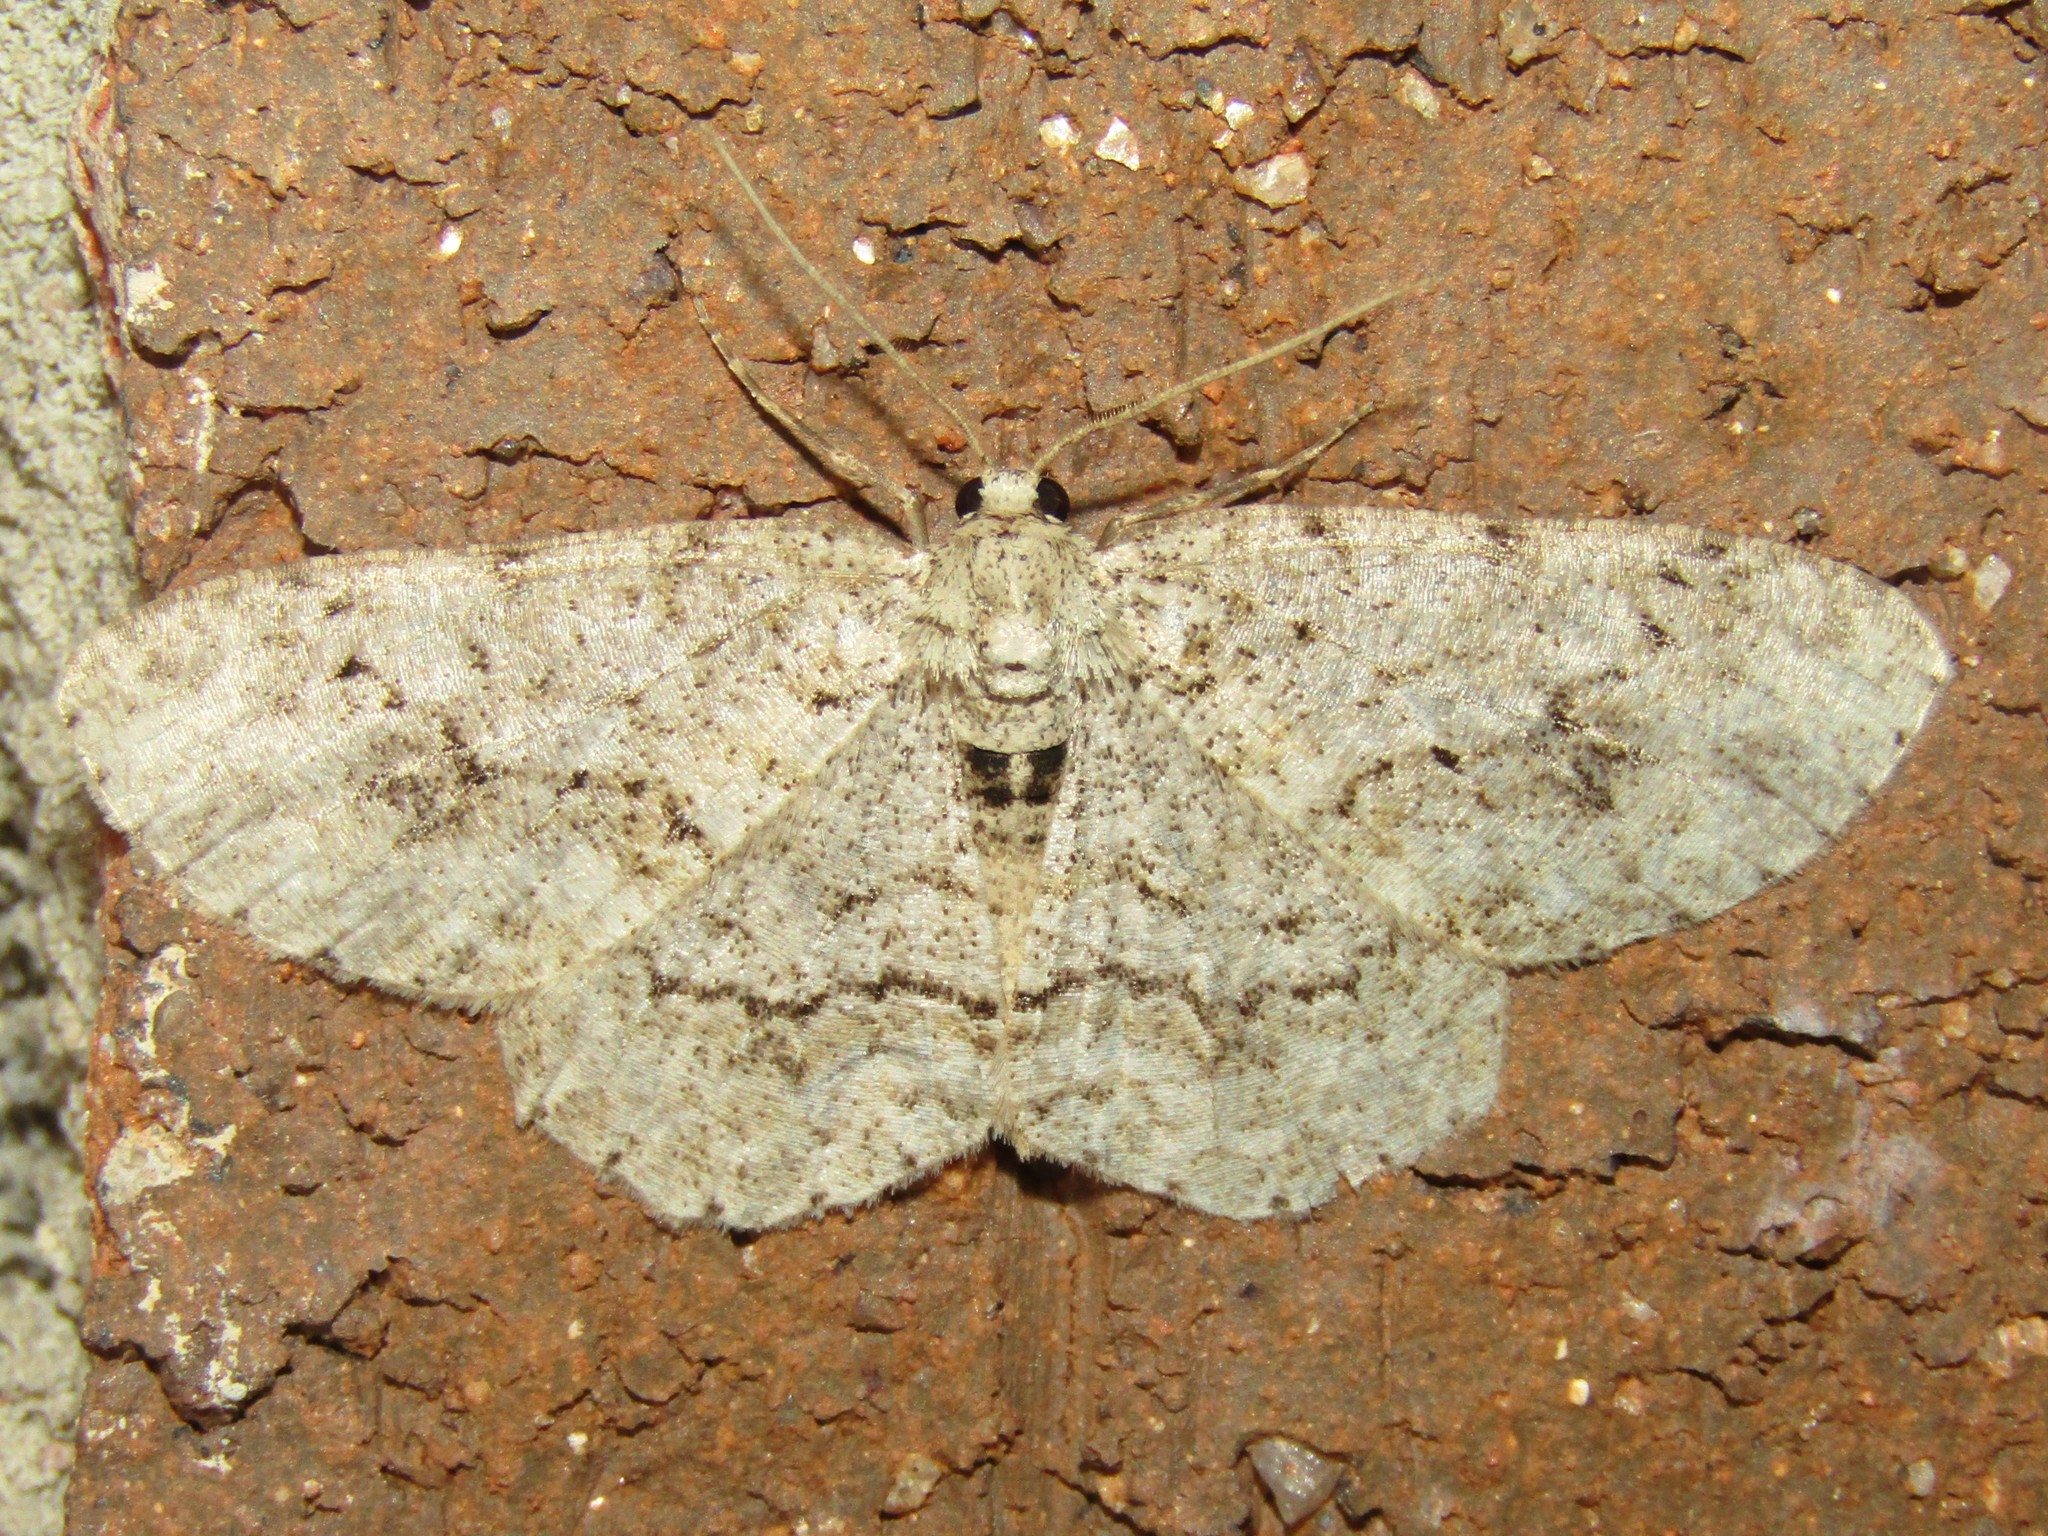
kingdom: Animalia
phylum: Arthropoda
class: Insecta
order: Lepidoptera
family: Geometridae
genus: Ectropis
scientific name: Ectropis crepuscularia
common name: Engrailed
